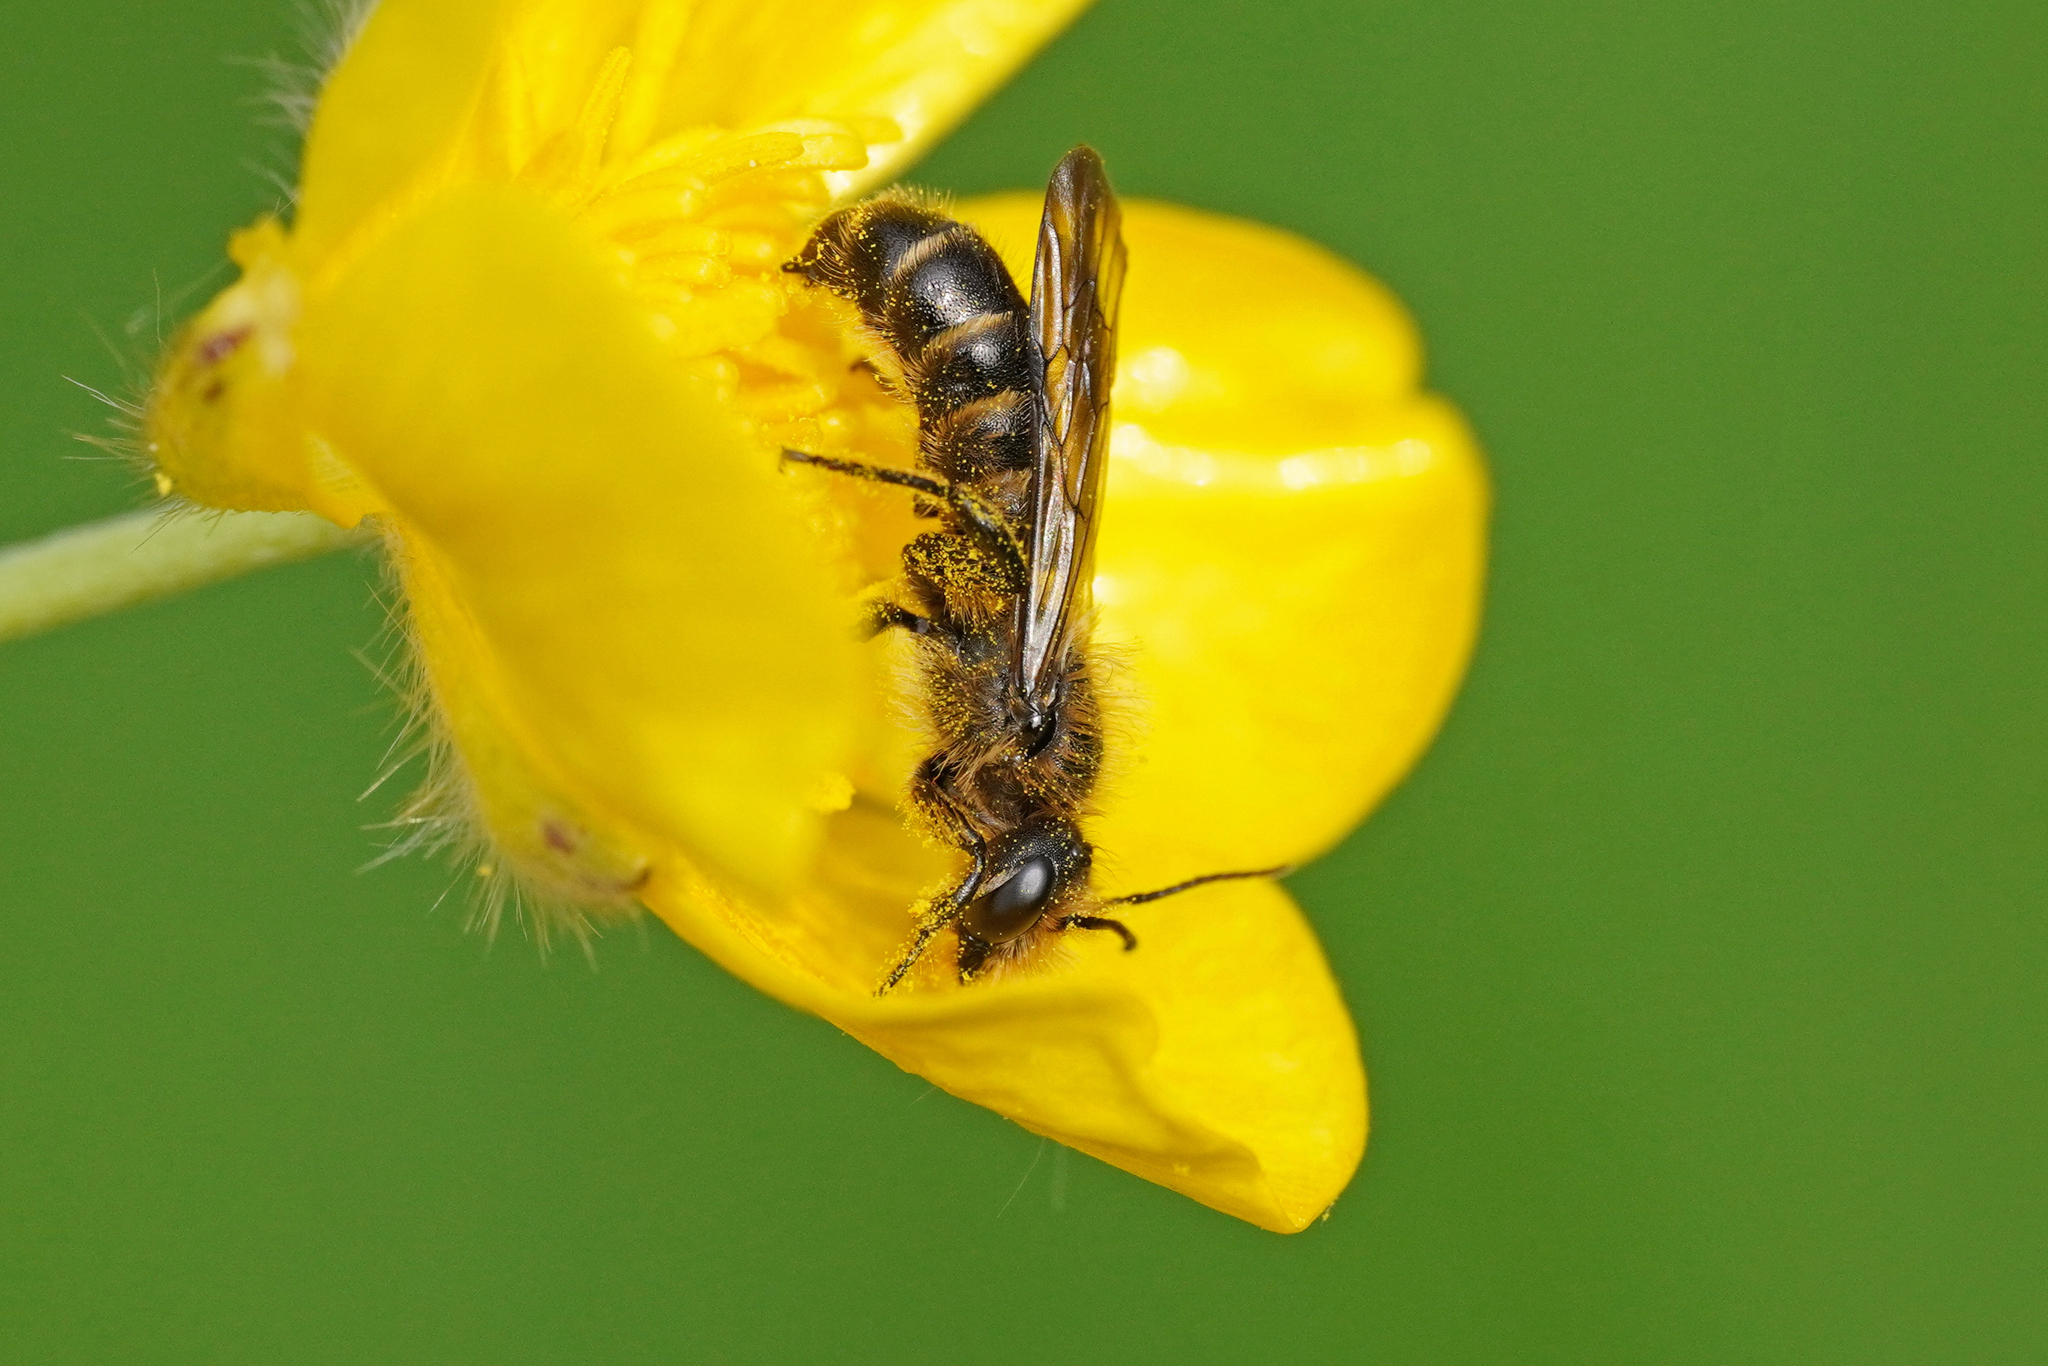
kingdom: Animalia
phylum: Arthropoda
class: Insecta
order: Hymenoptera
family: Megachilidae
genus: Chelostoma
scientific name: Chelostoma florisomne
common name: Sleepy carpenter bee
